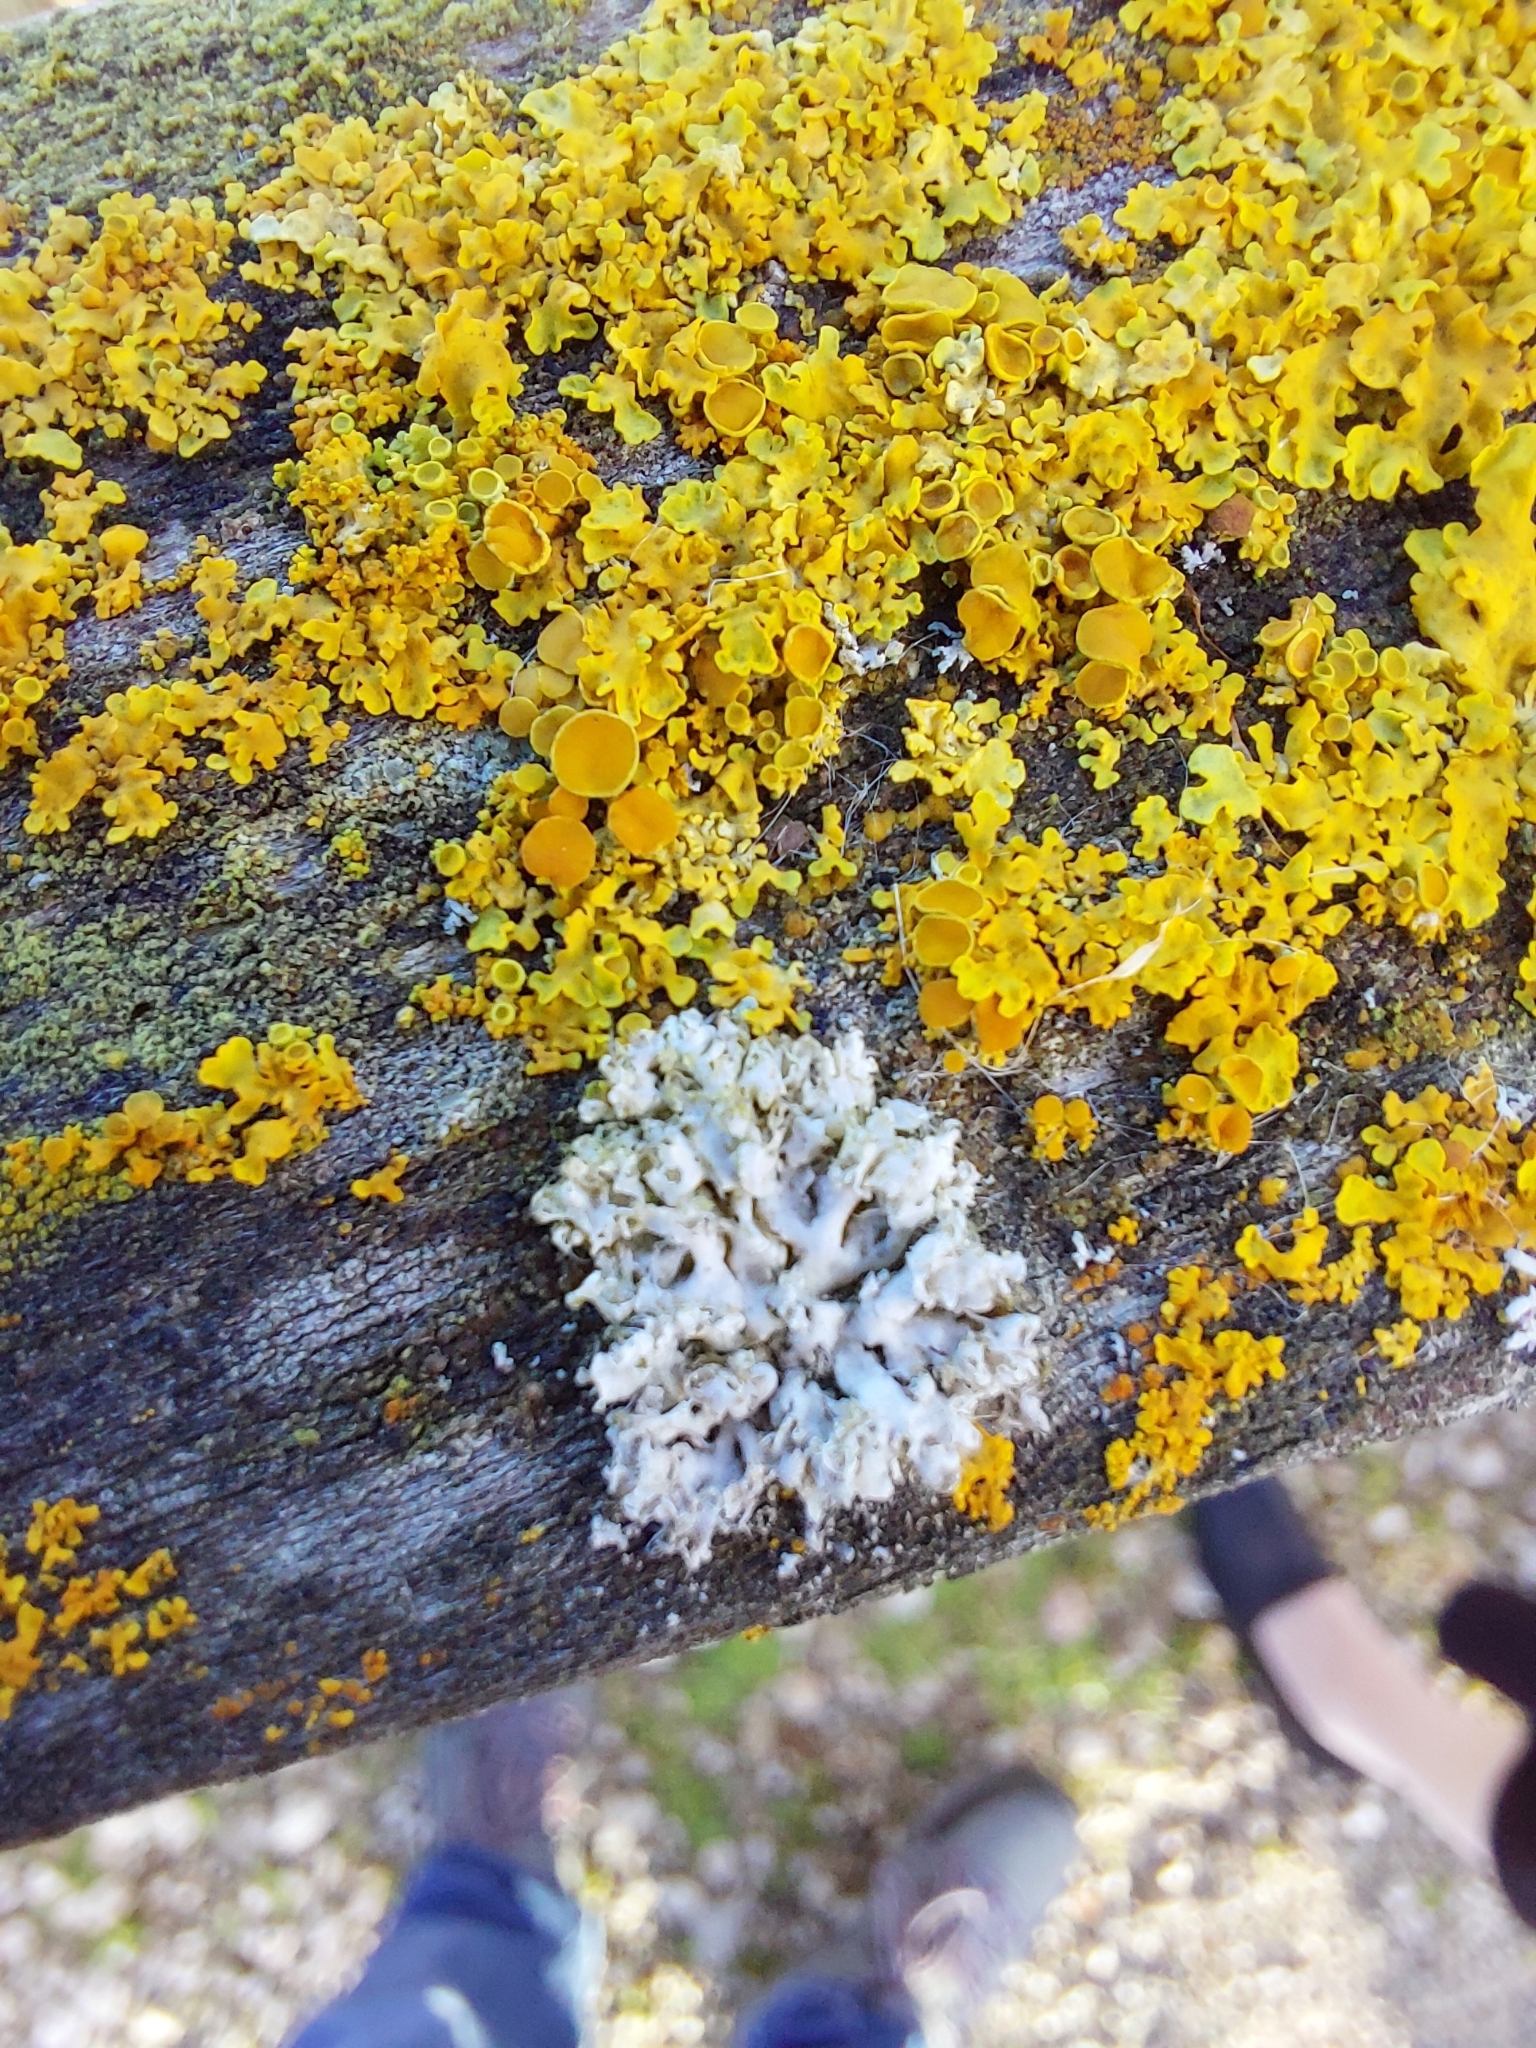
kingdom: Fungi
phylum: Ascomycota
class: Lecanoromycetes
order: Caliciales
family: Physciaceae
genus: Physcia
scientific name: Physcia adscendens
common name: Hooded rosette lichen
